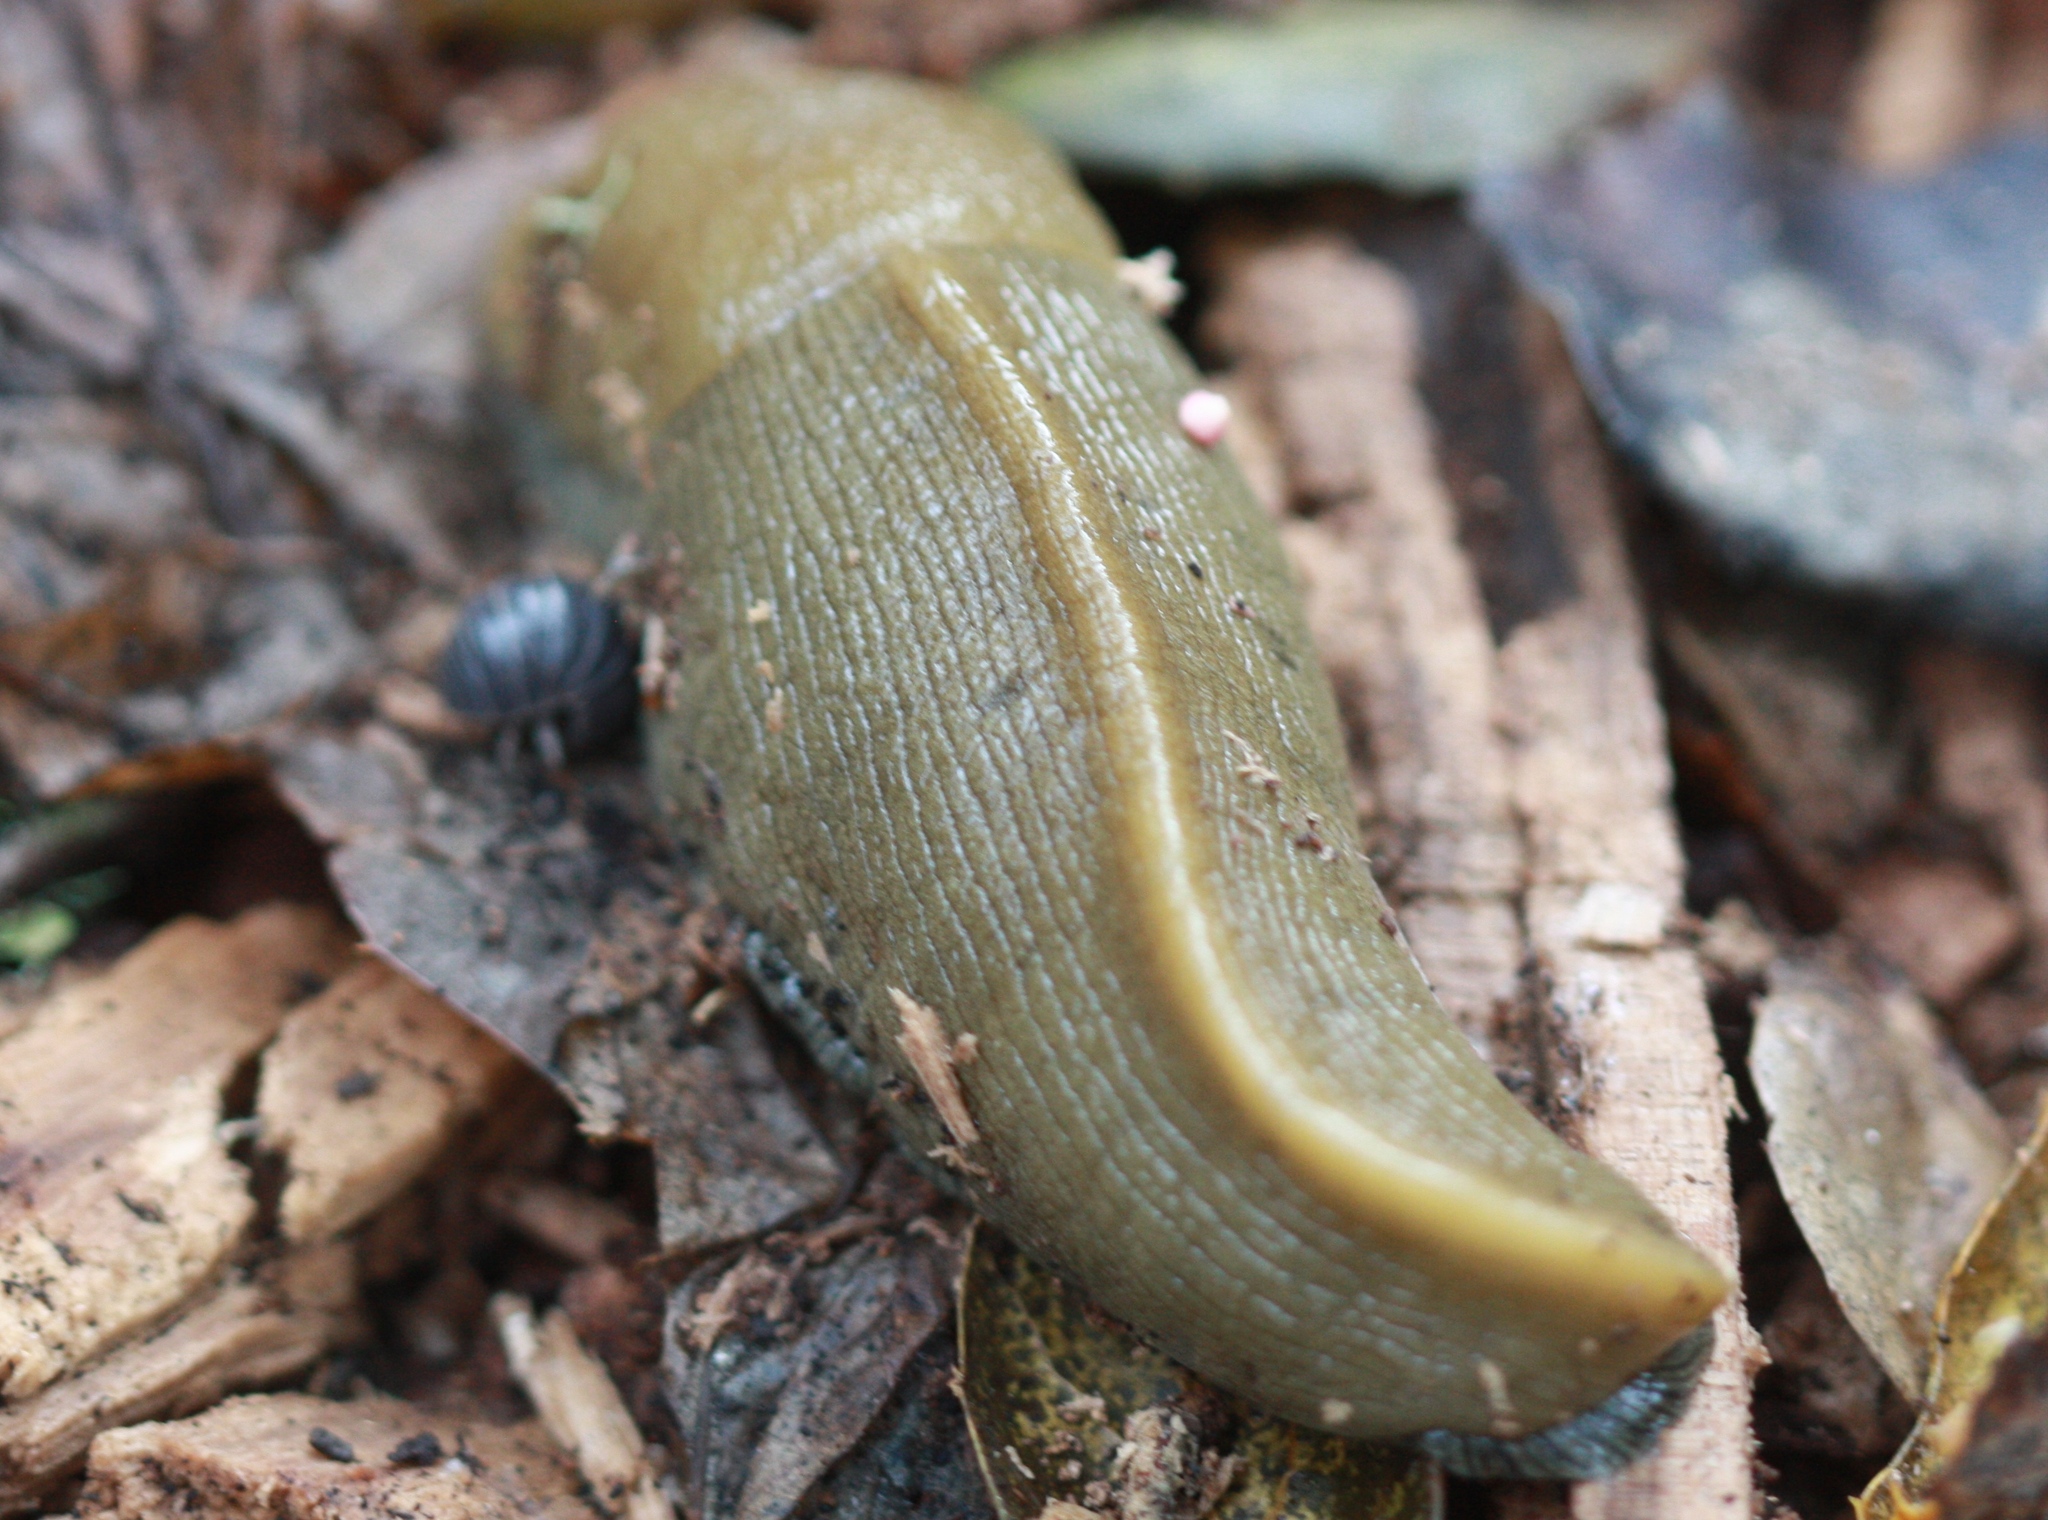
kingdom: Animalia
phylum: Mollusca
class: Gastropoda
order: Stylommatophora
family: Ariolimacidae
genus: Ariolimax
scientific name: Ariolimax buttoni
